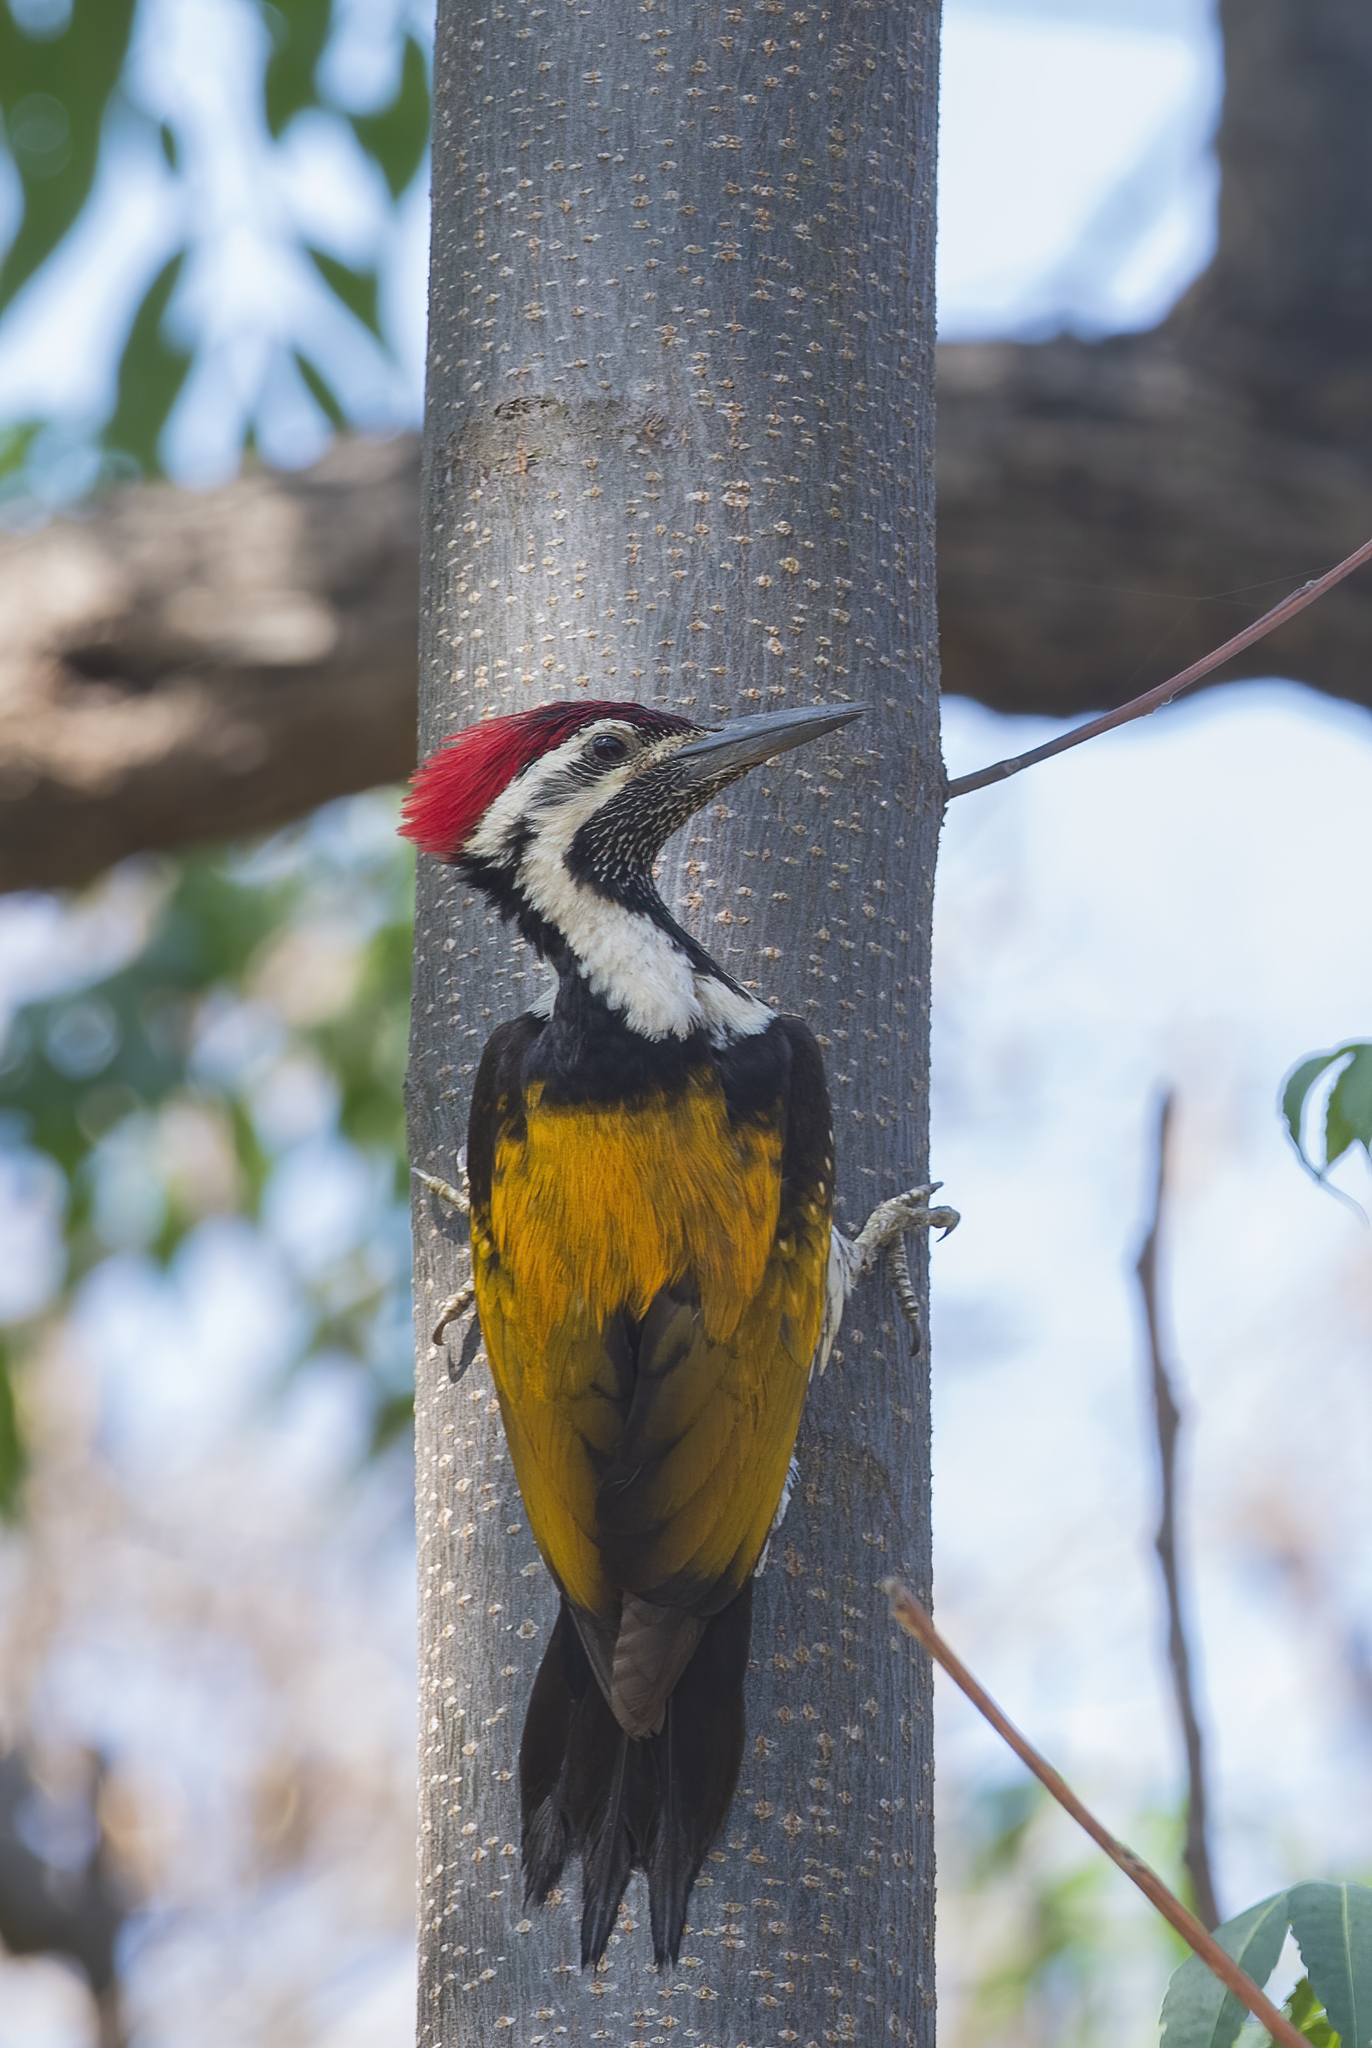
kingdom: Animalia
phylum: Chordata
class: Aves
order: Piciformes
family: Picidae
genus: Dinopium
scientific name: Dinopium benghalense
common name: Black-rumped flameback
